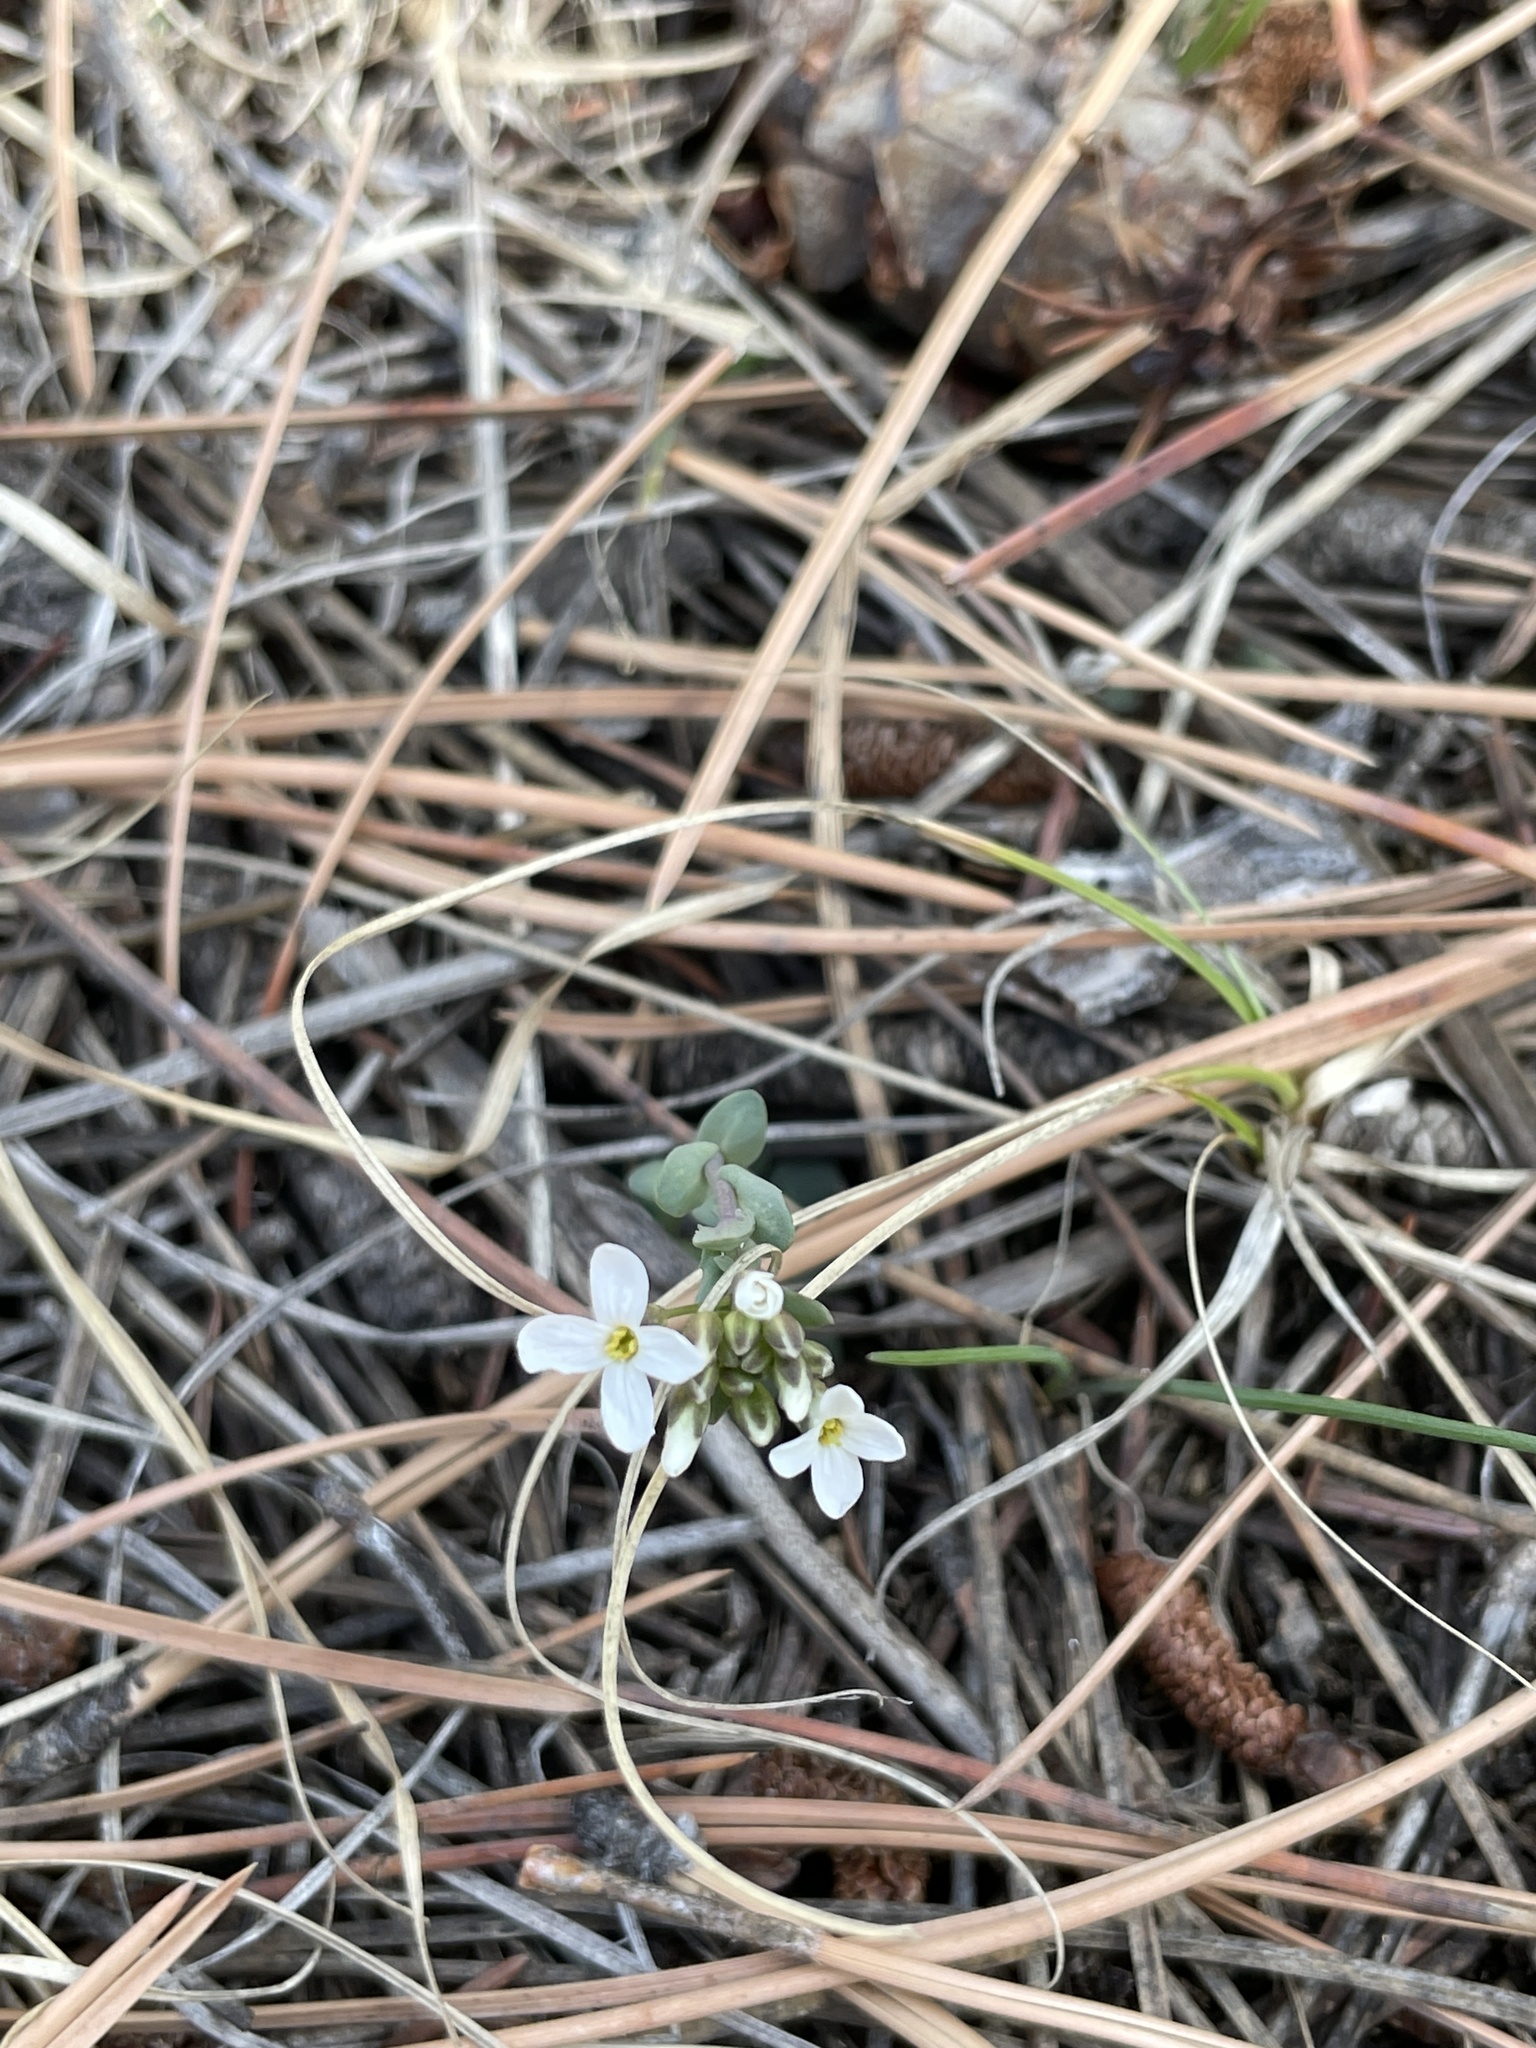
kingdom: Plantae
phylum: Tracheophyta
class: Magnoliopsida
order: Brassicales
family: Brassicaceae
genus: Noccaea
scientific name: Noccaea fendleri
